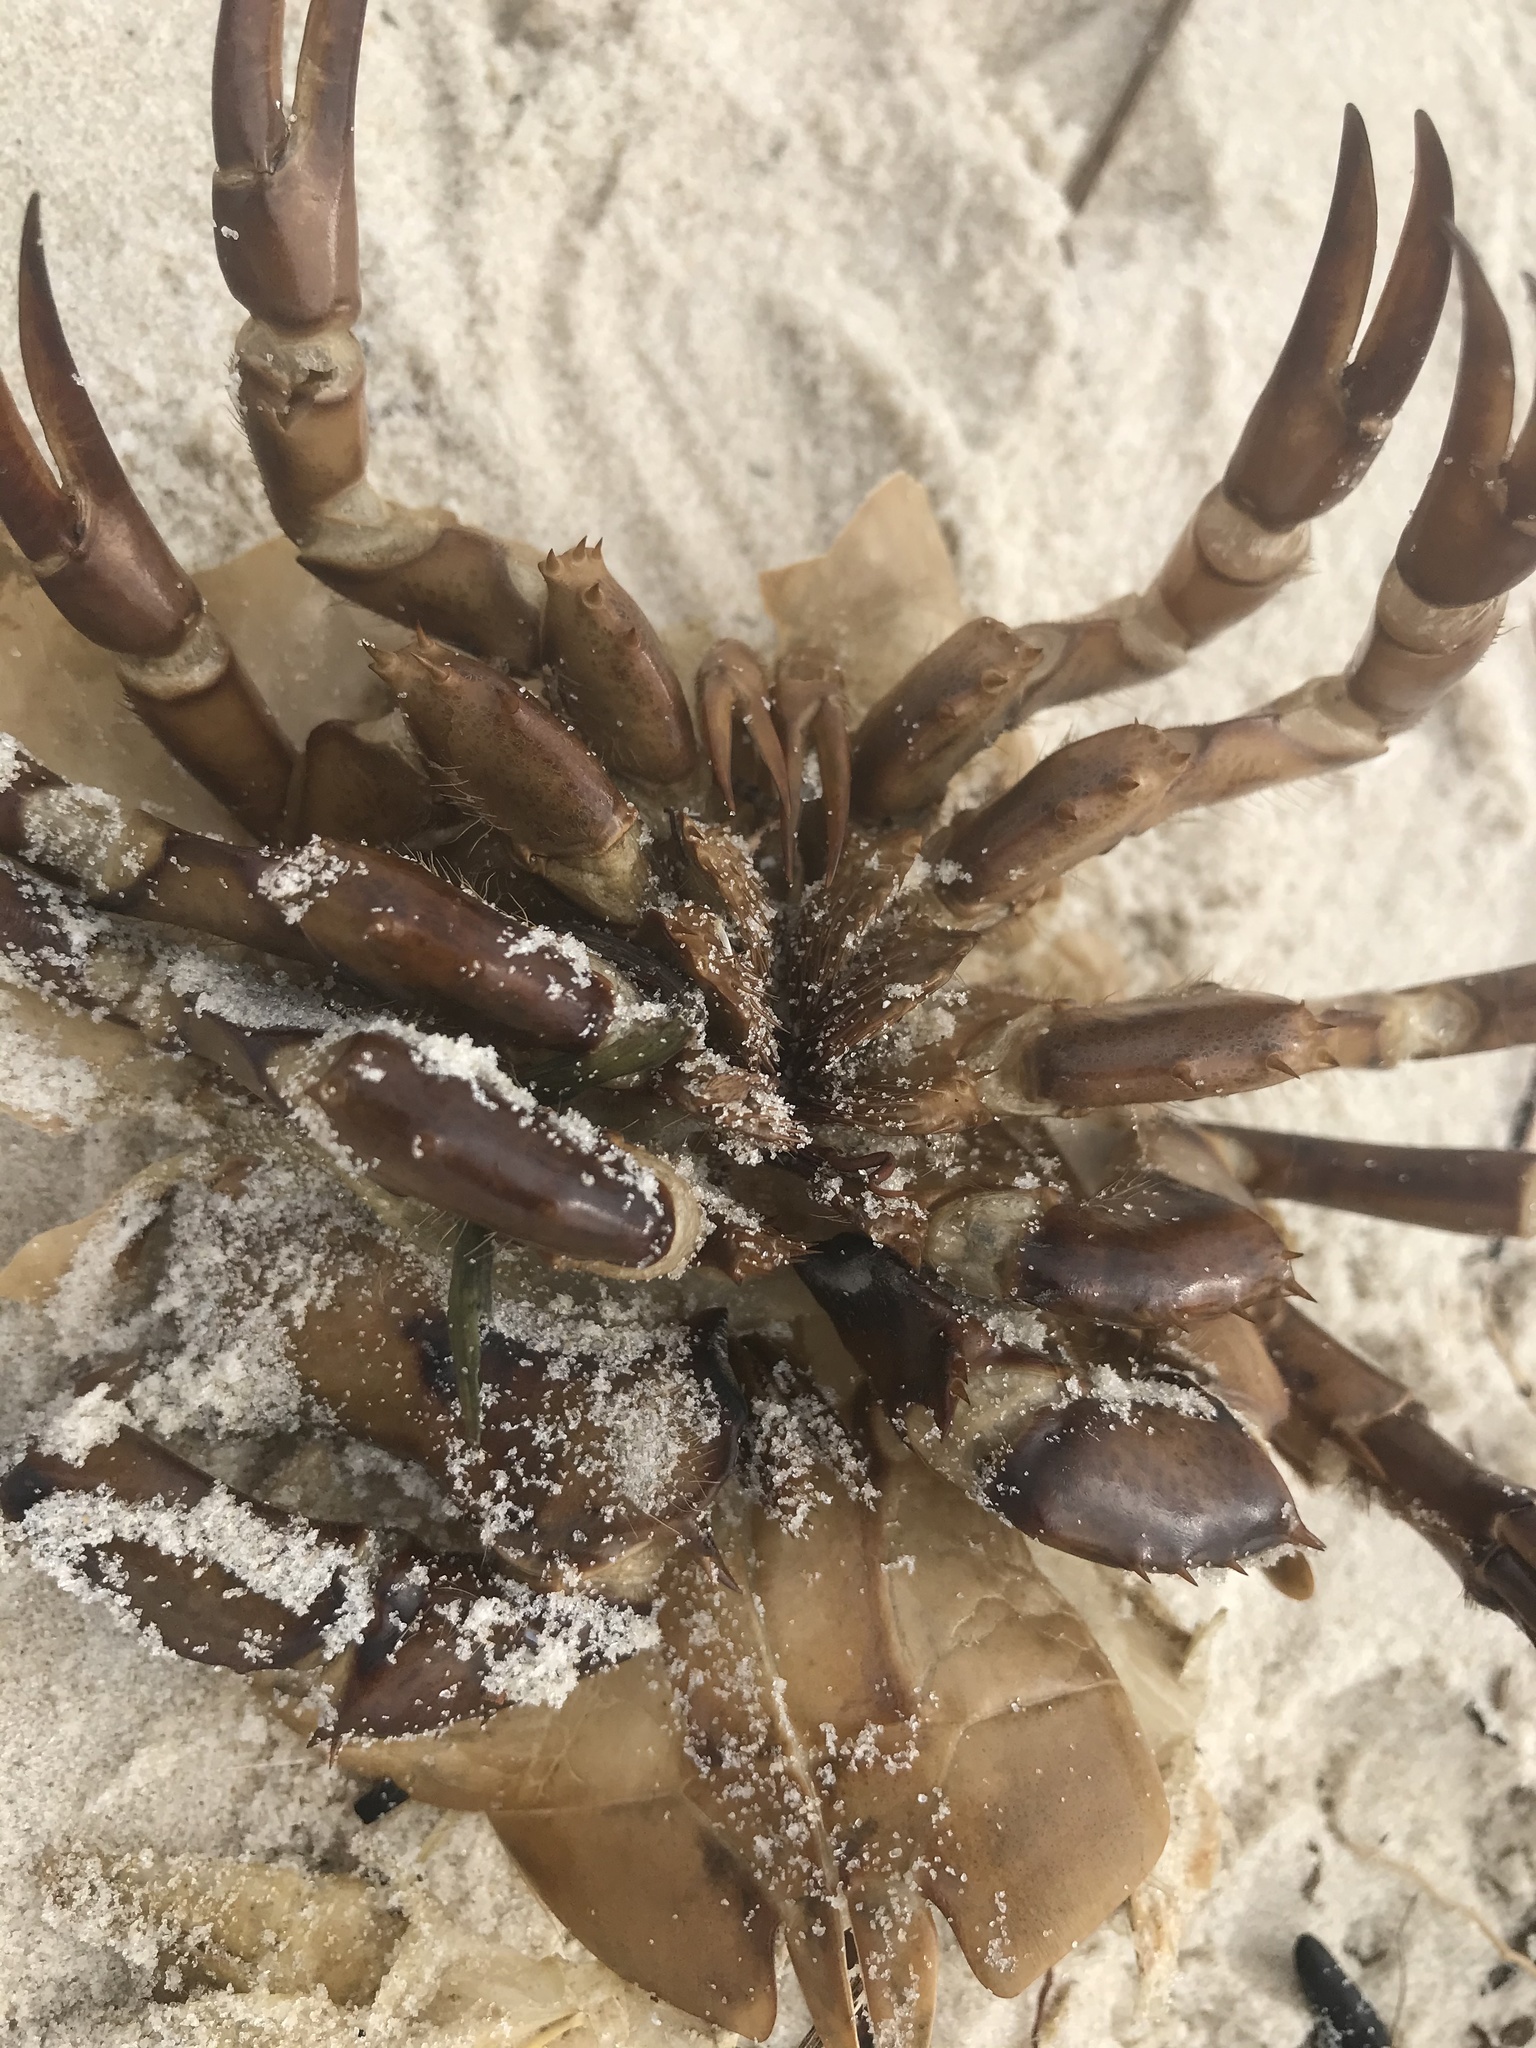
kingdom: Animalia
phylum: Arthropoda
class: Merostomata
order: Xiphosurida
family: Limulidae
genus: Limulus
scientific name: Limulus polyphemus
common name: Horseshoe crab
